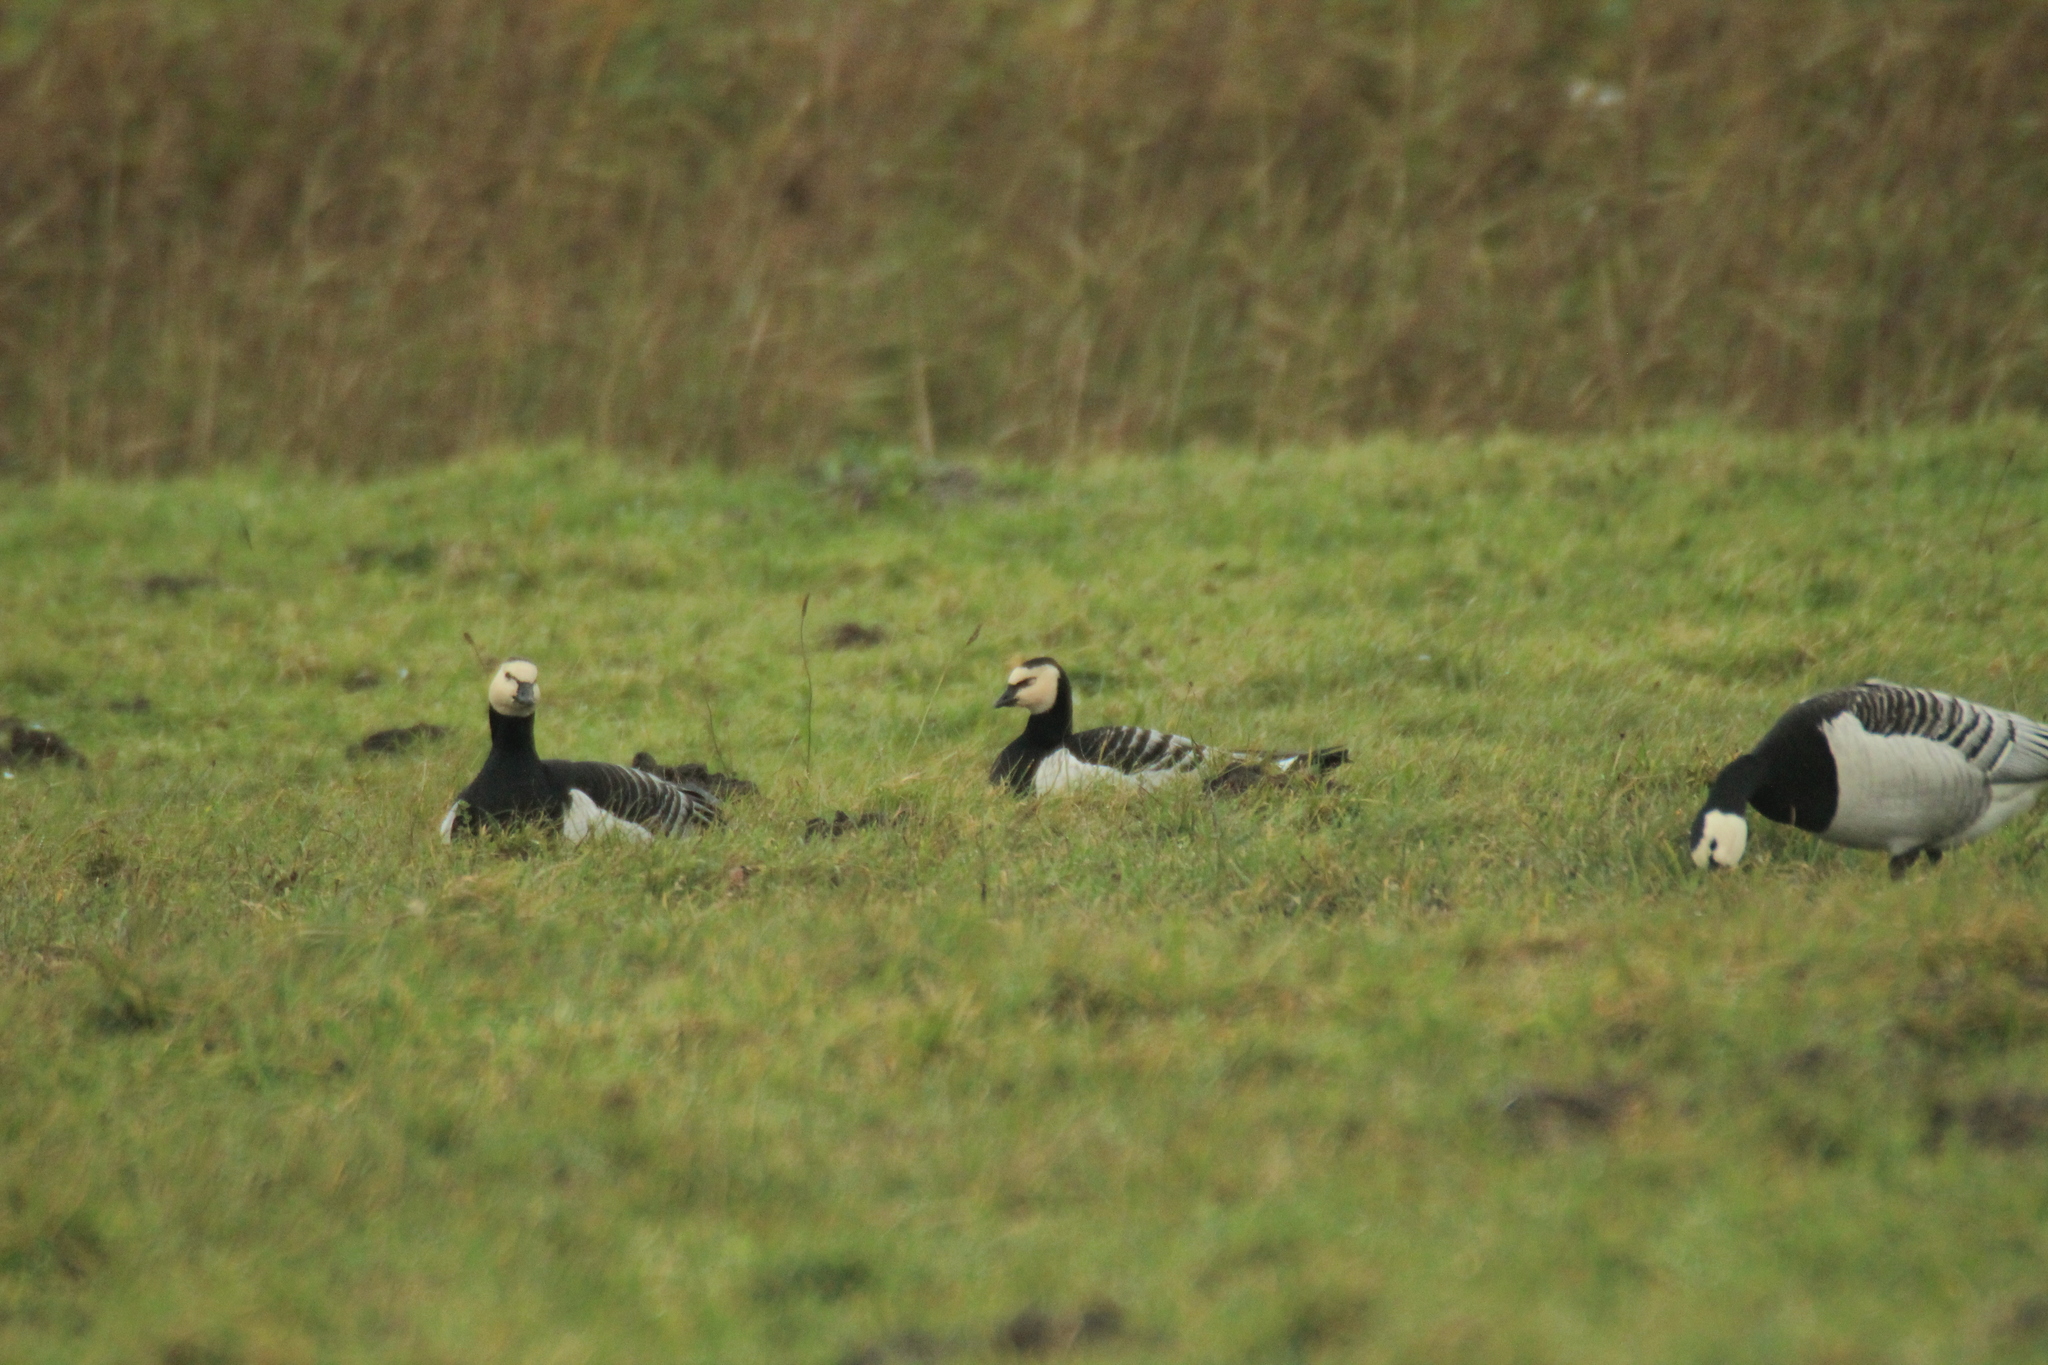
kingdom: Animalia
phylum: Chordata
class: Aves
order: Anseriformes
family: Anatidae
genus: Branta
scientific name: Branta leucopsis
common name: Barnacle goose
